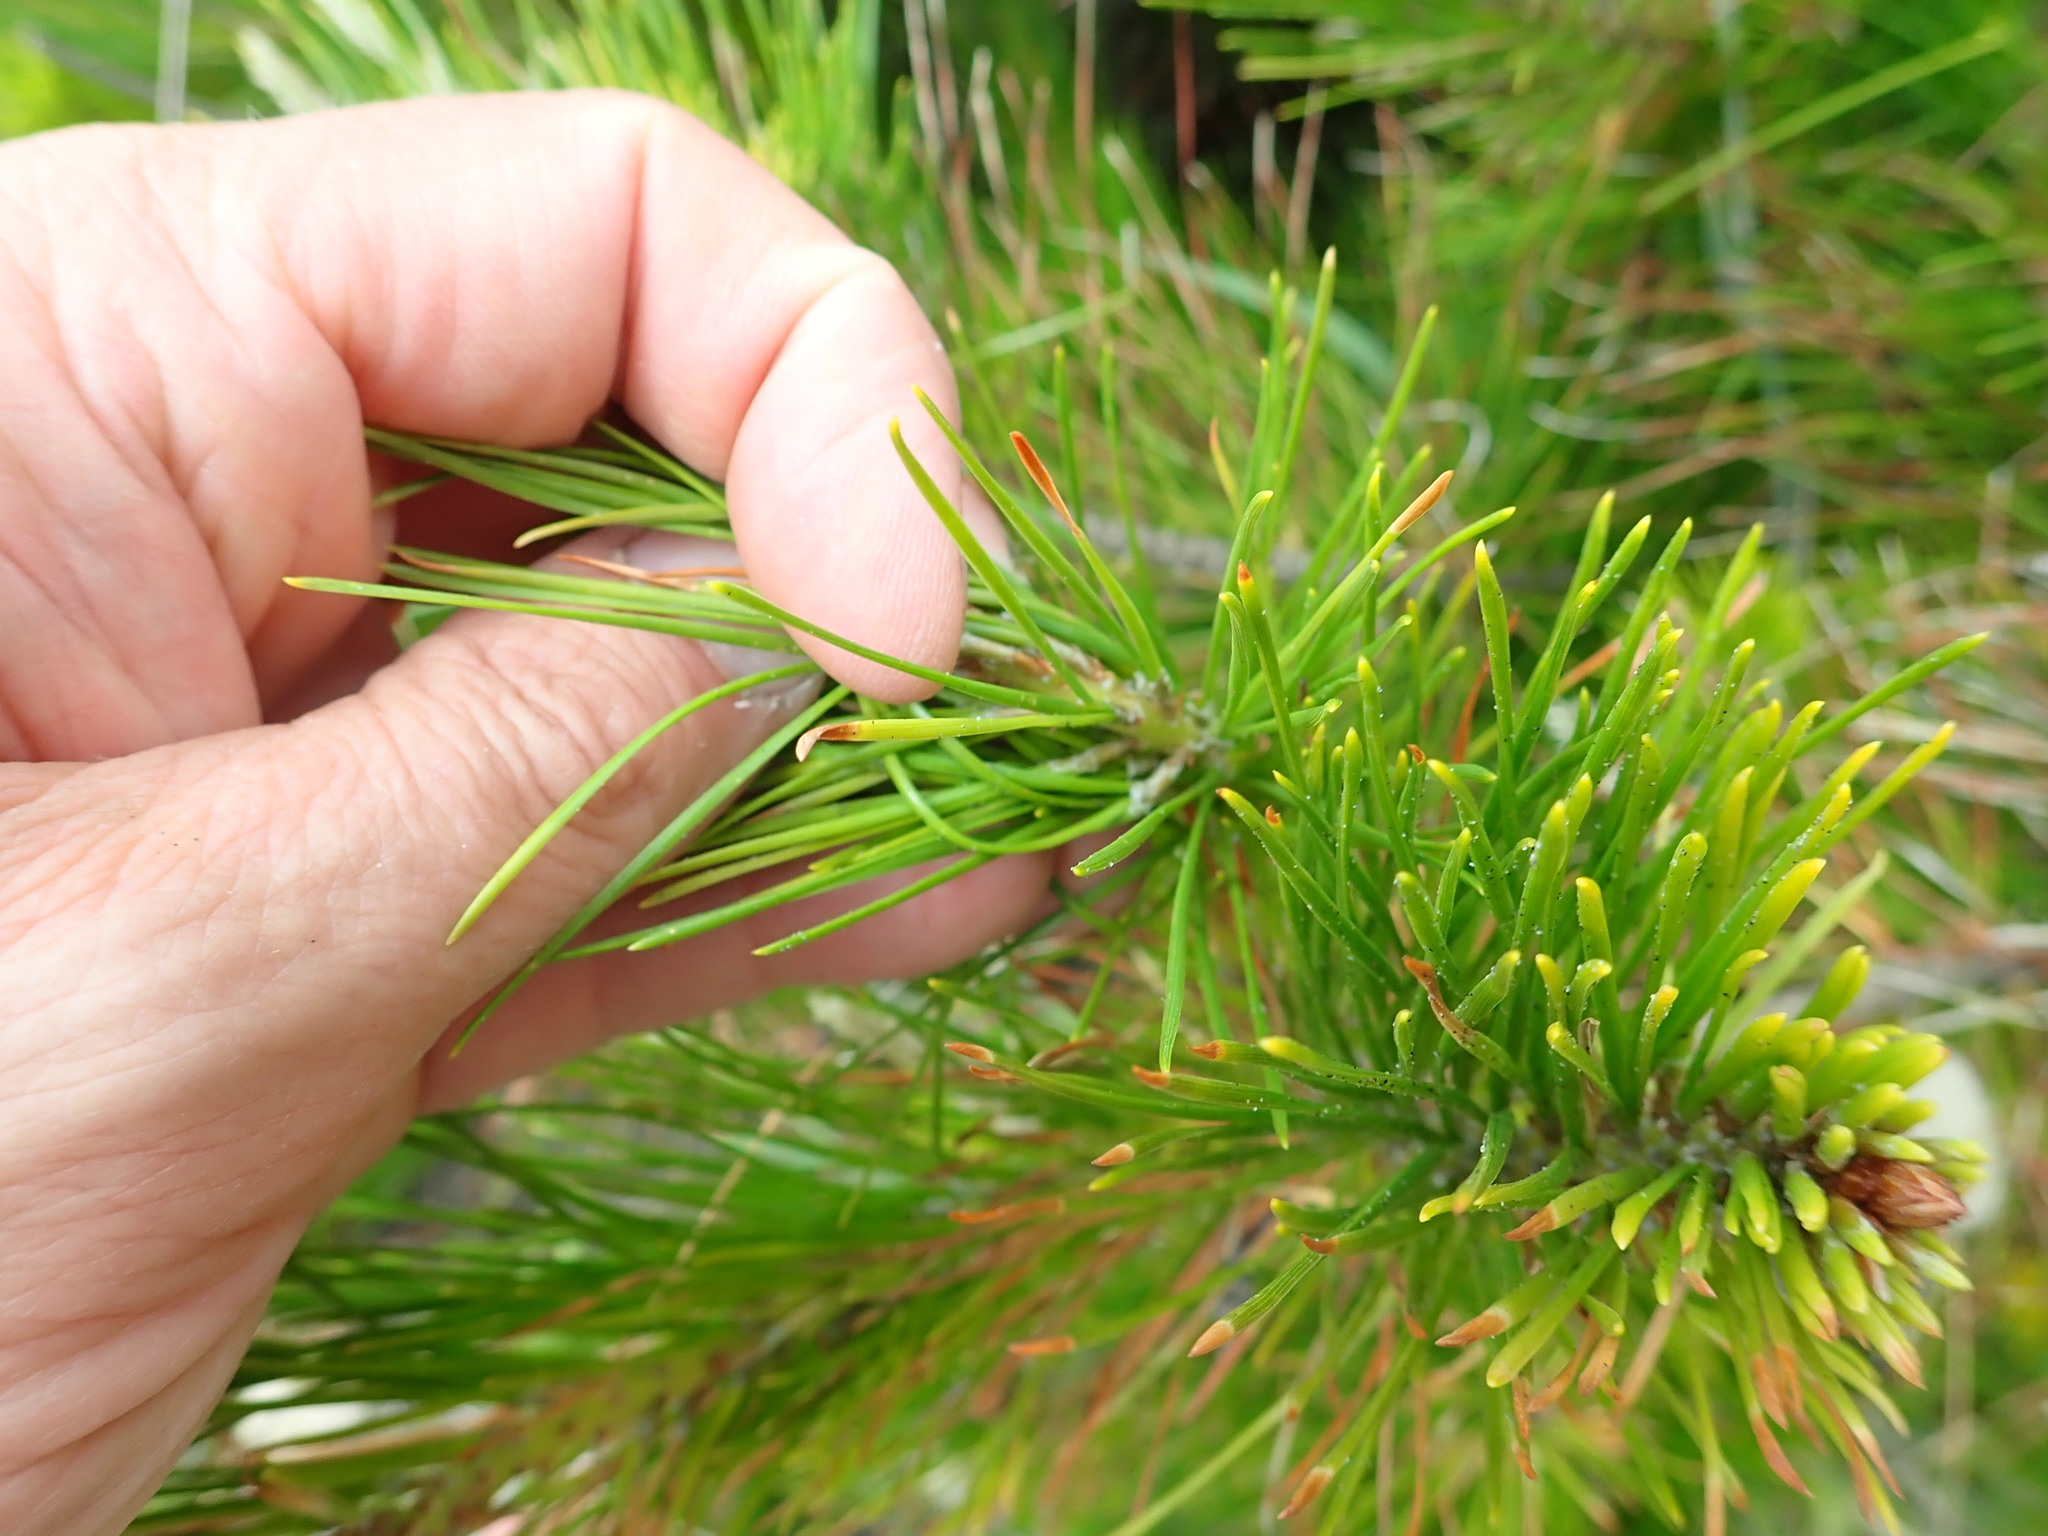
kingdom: Plantae
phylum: Tracheophyta
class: Pinopsida
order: Pinales
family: Pinaceae
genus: Pinus
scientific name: Pinus radiata
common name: Monterey pine
